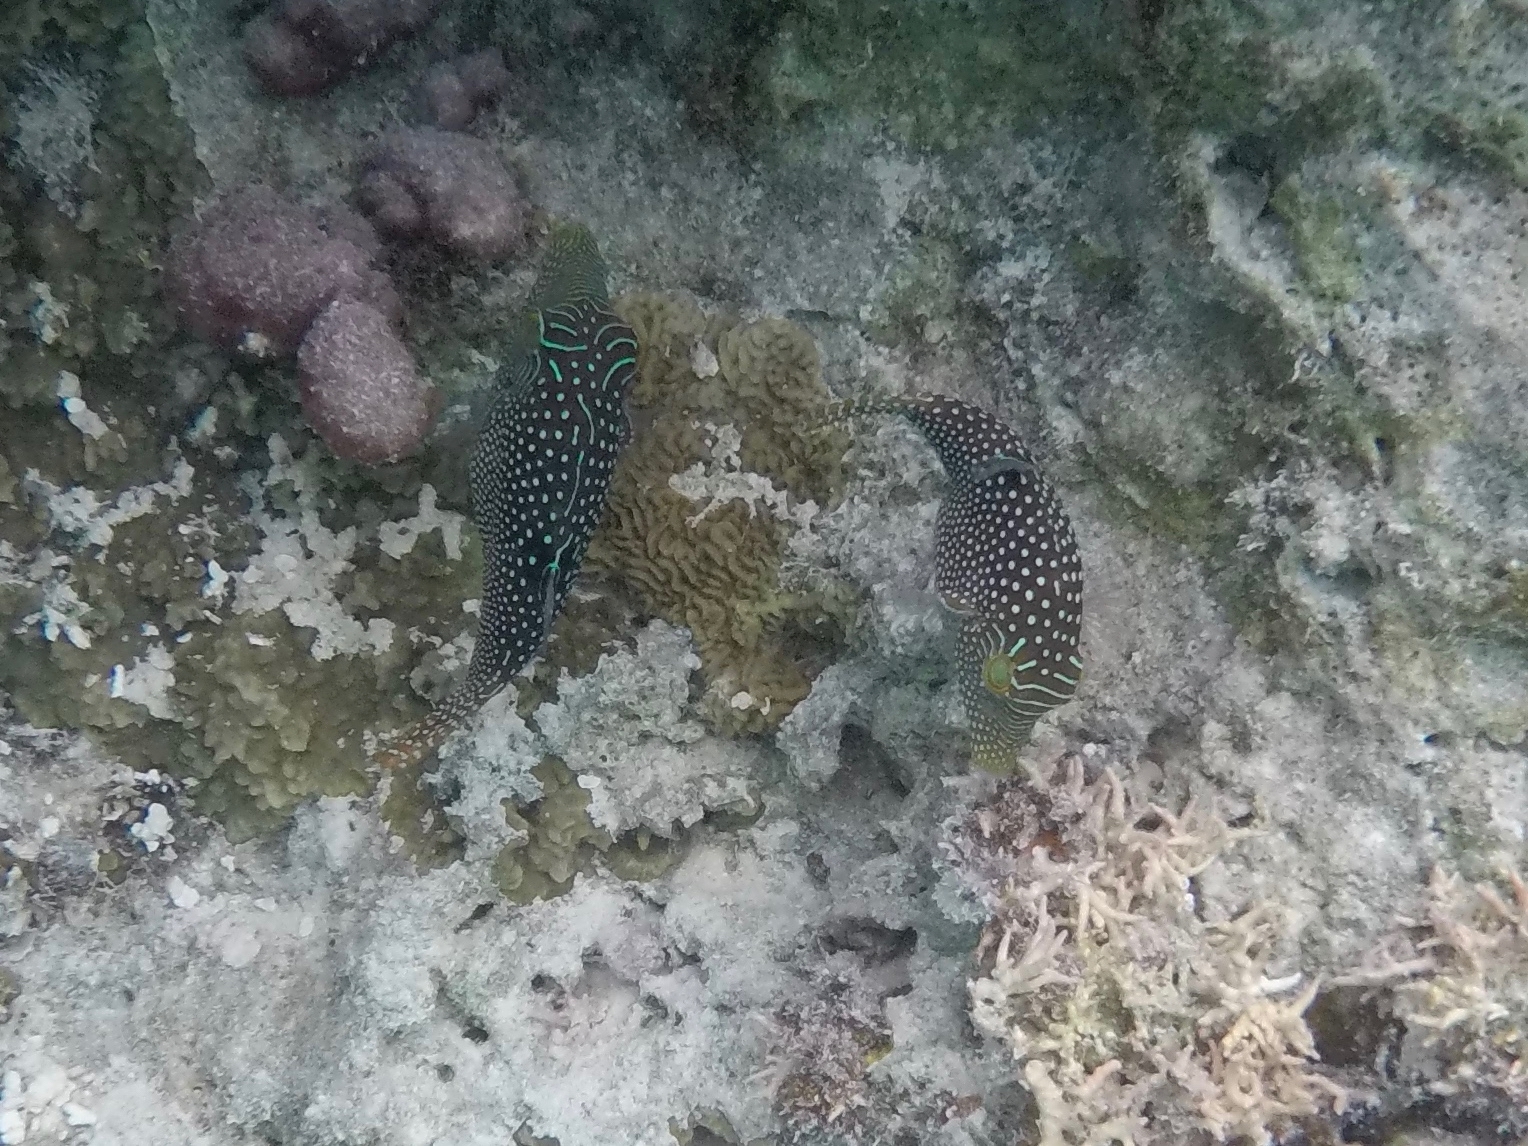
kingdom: Animalia
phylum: Chordata
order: Tetraodontiformes
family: Tetraodontidae
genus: Canthigaster
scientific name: Canthigaster solandri
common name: False-eye toby
